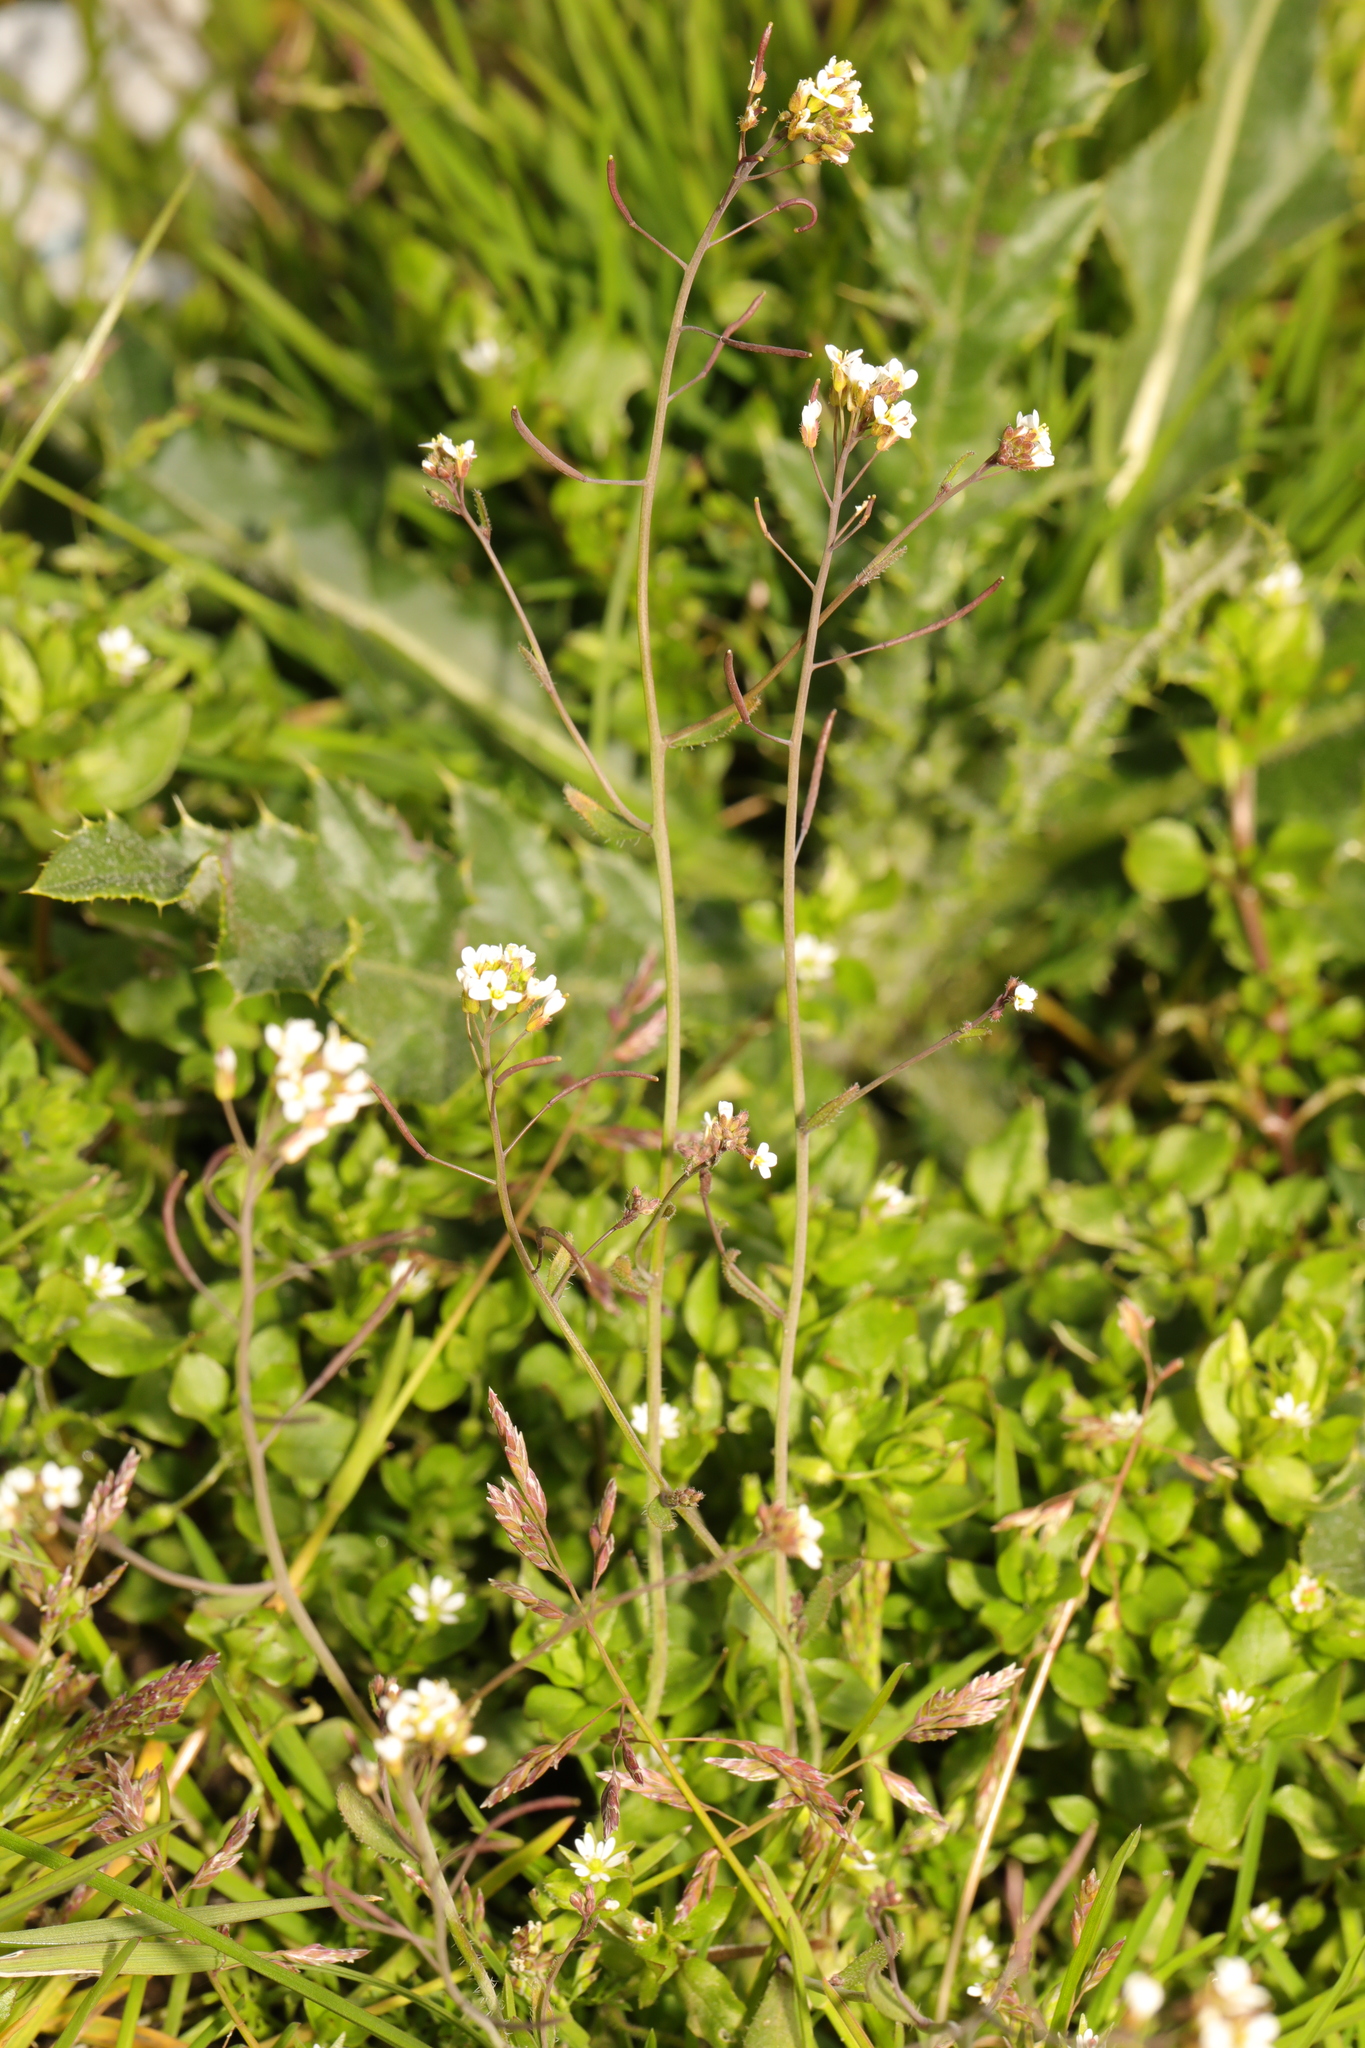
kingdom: Plantae
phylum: Tracheophyta
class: Magnoliopsida
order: Brassicales
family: Brassicaceae
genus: Arabidopsis
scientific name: Arabidopsis thaliana
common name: Thale cress
